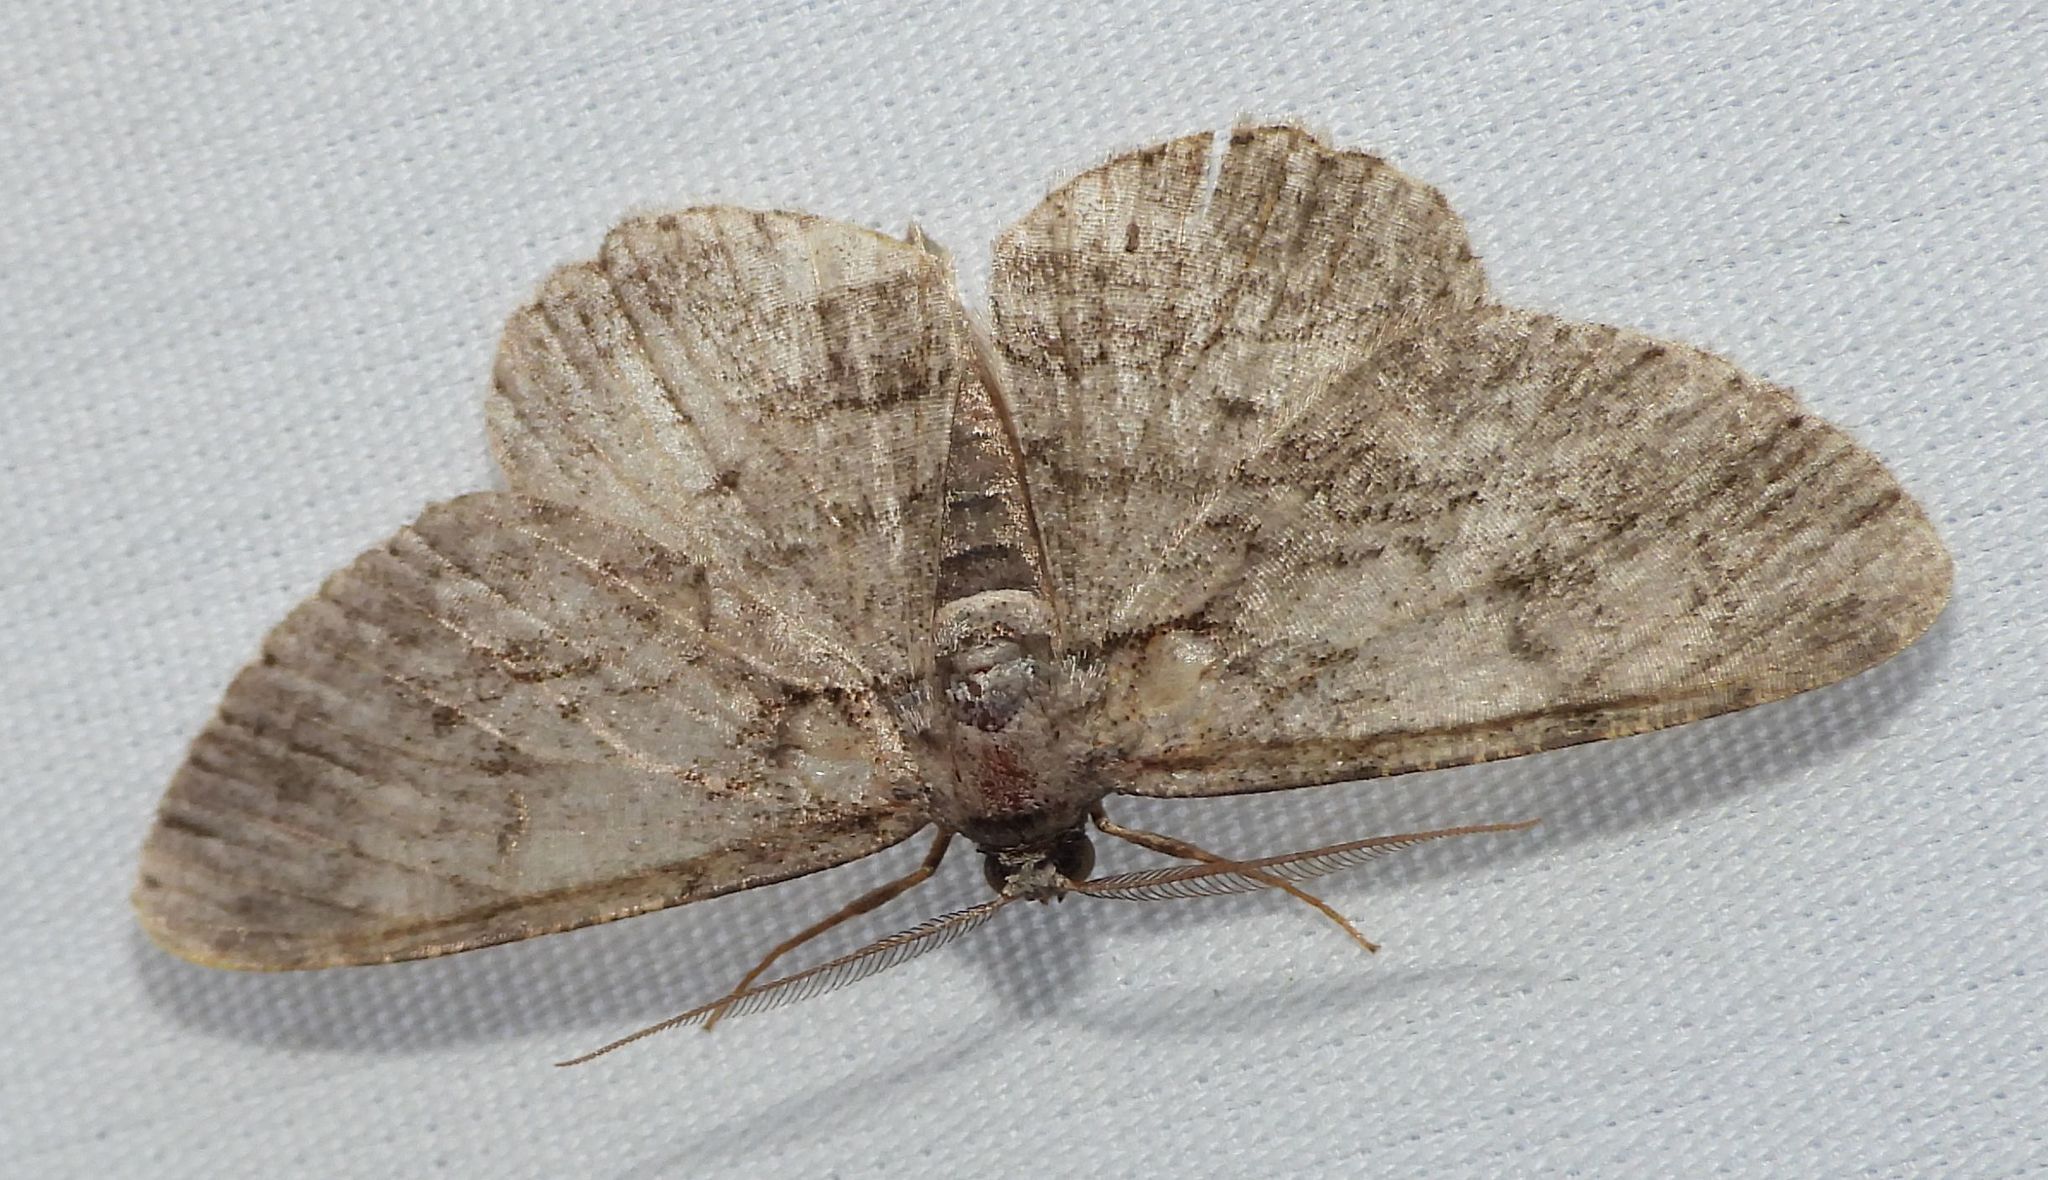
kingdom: Animalia
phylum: Arthropoda
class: Insecta
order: Lepidoptera
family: Geometridae
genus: Protoboarmia
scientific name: Protoboarmia porcelaria
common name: Porcelain gray
